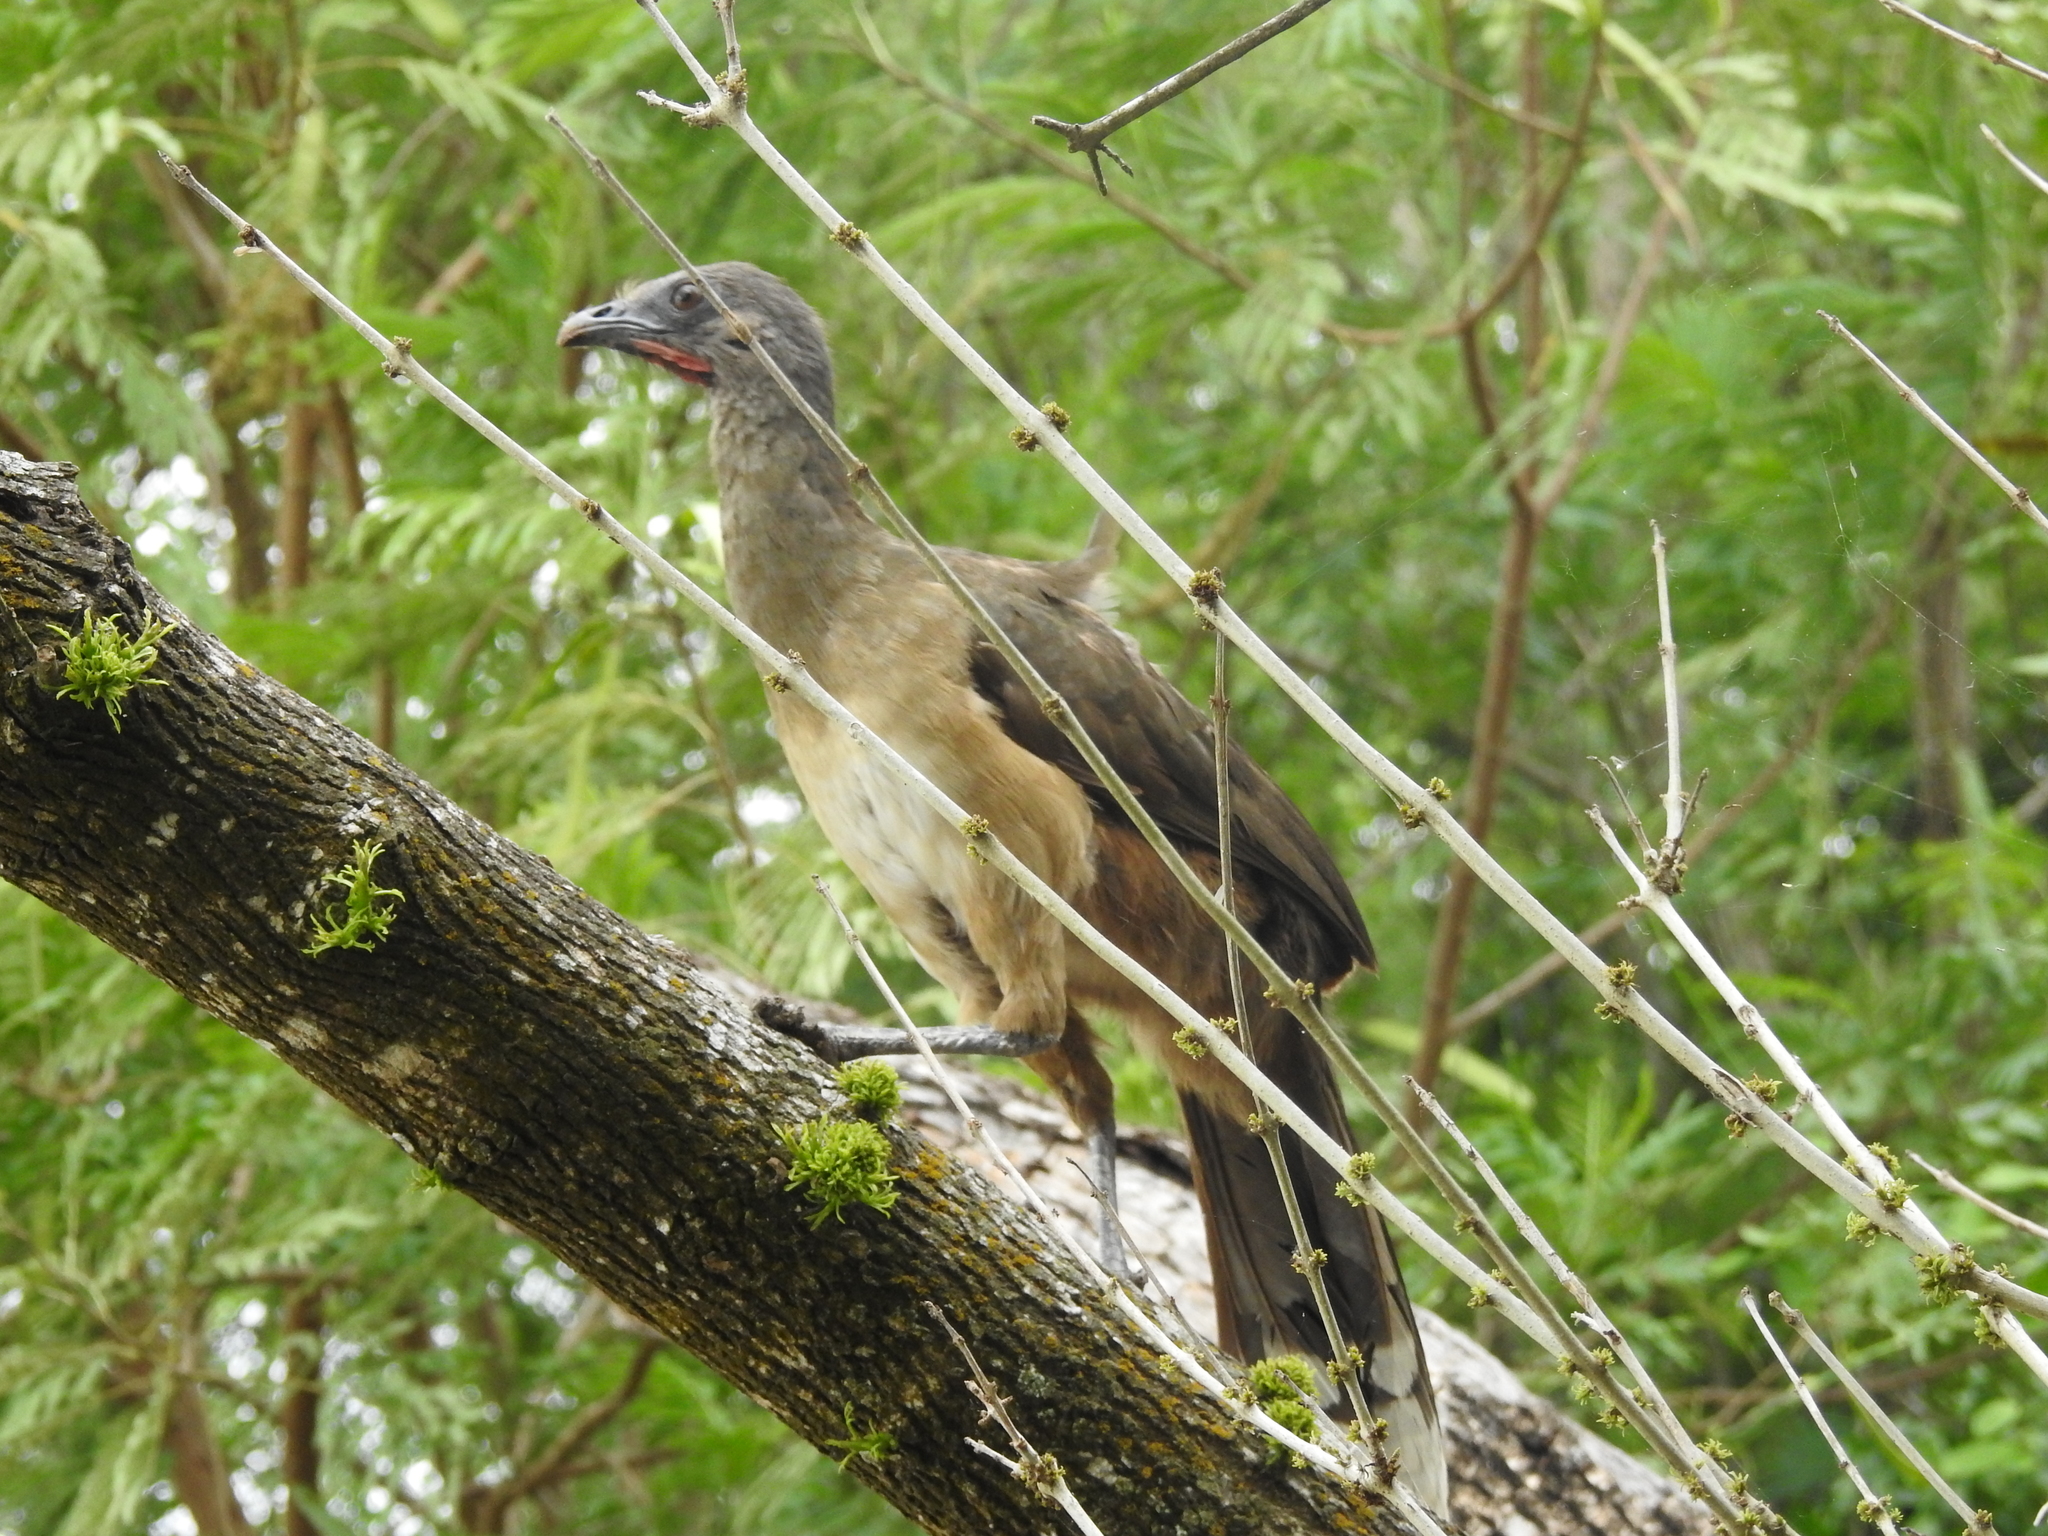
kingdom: Animalia
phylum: Chordata
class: Aves
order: Galliformes
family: Cracidae
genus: Ortalis
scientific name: Ortalis vetula
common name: Plain chachalaca
